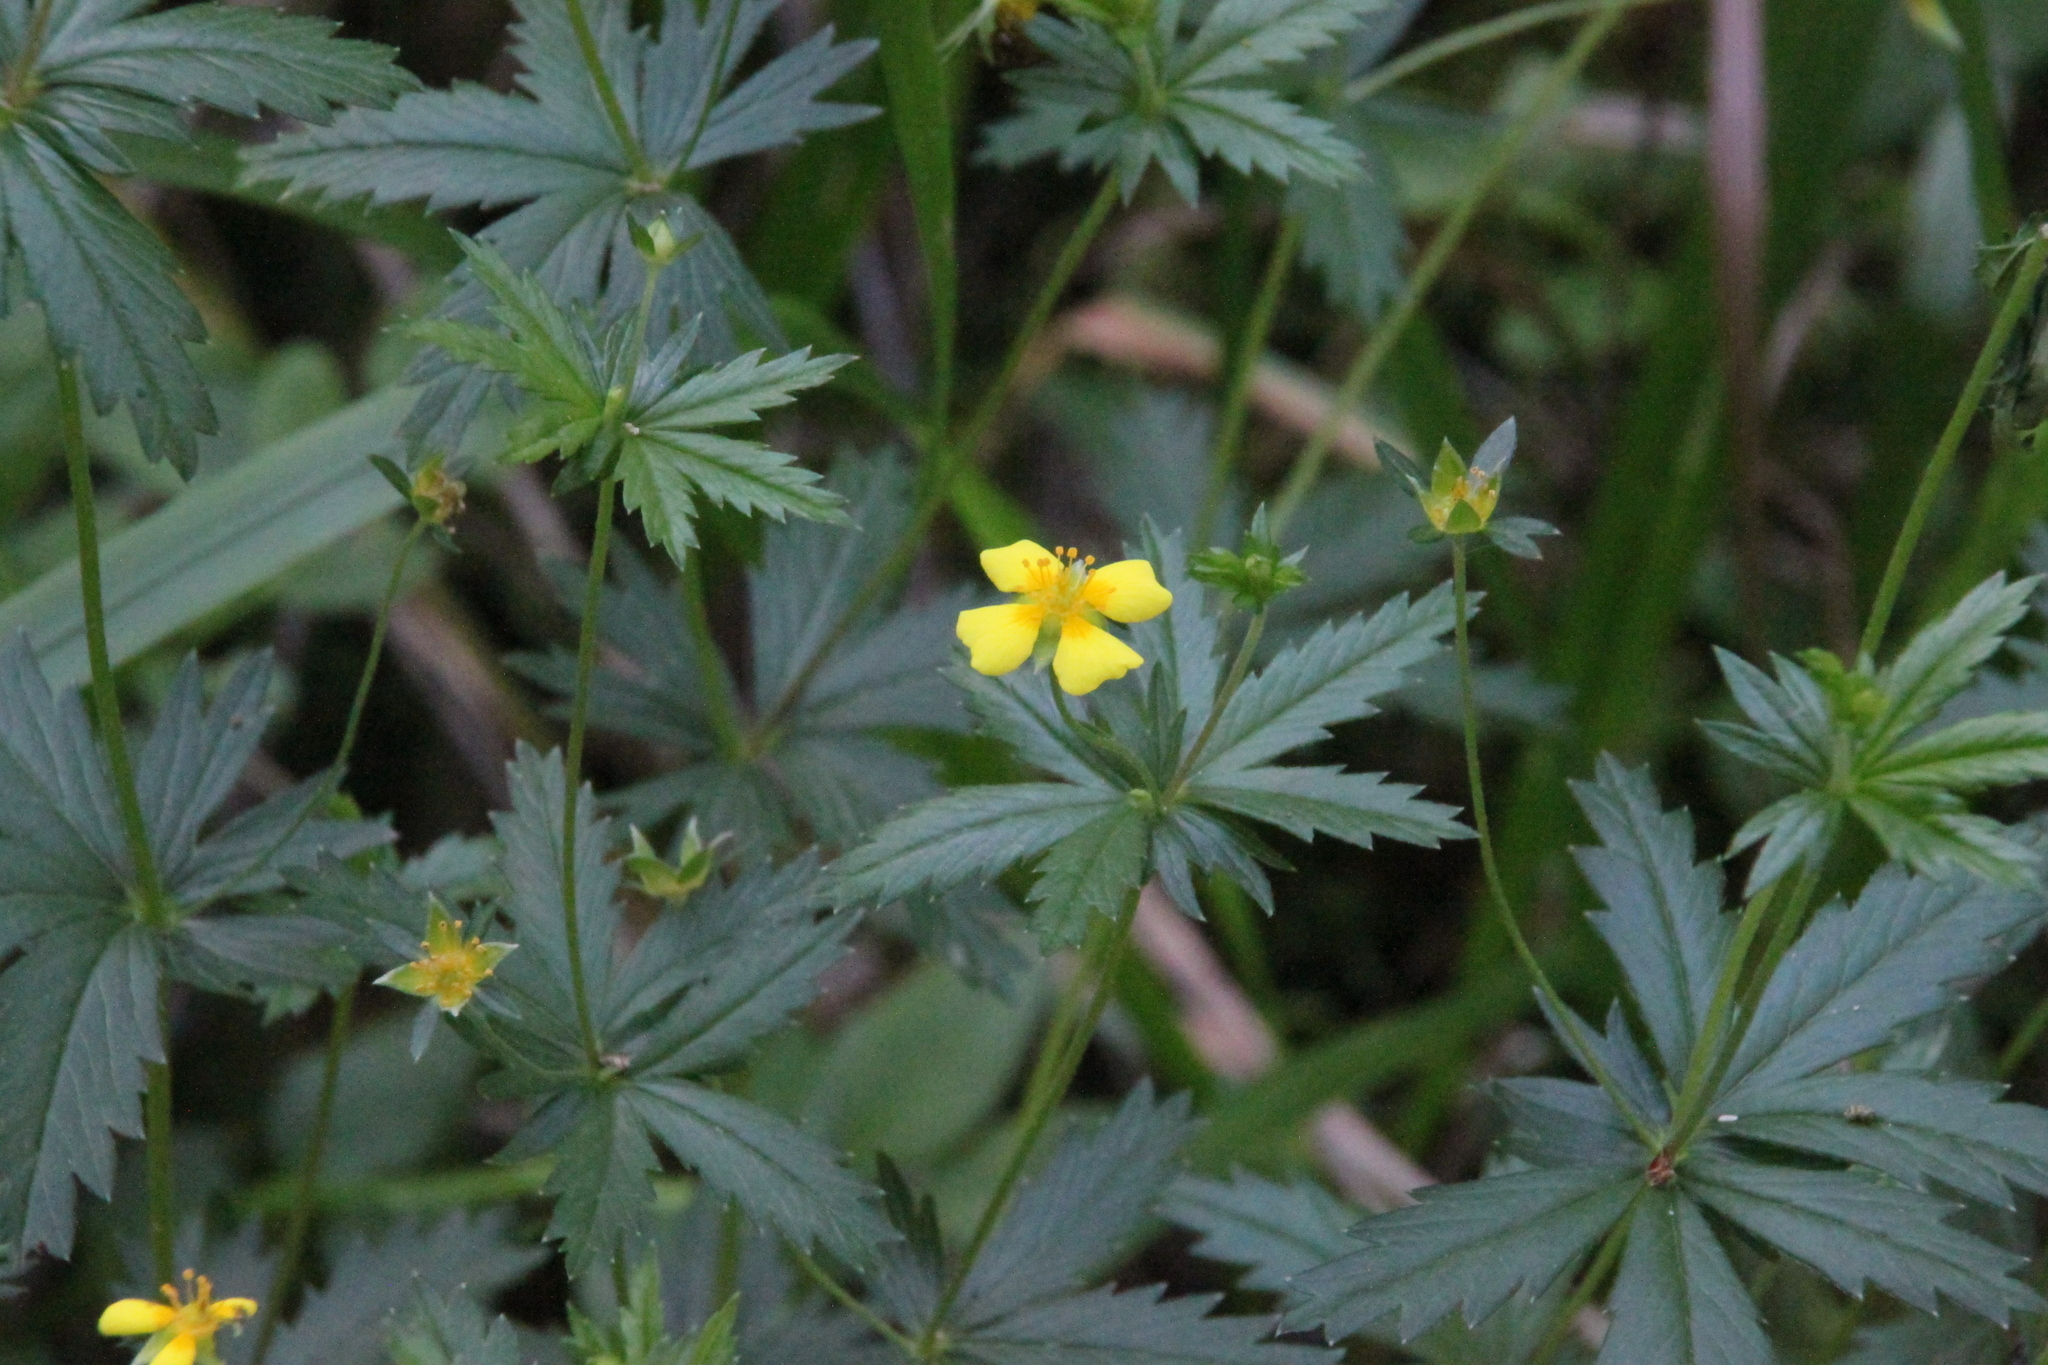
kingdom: Plantae
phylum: Tracheophyta
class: Magnoliopsida
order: Rosales
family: Rosaceae
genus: Potentilla
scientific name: Potentilla erecta
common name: Tormentil
